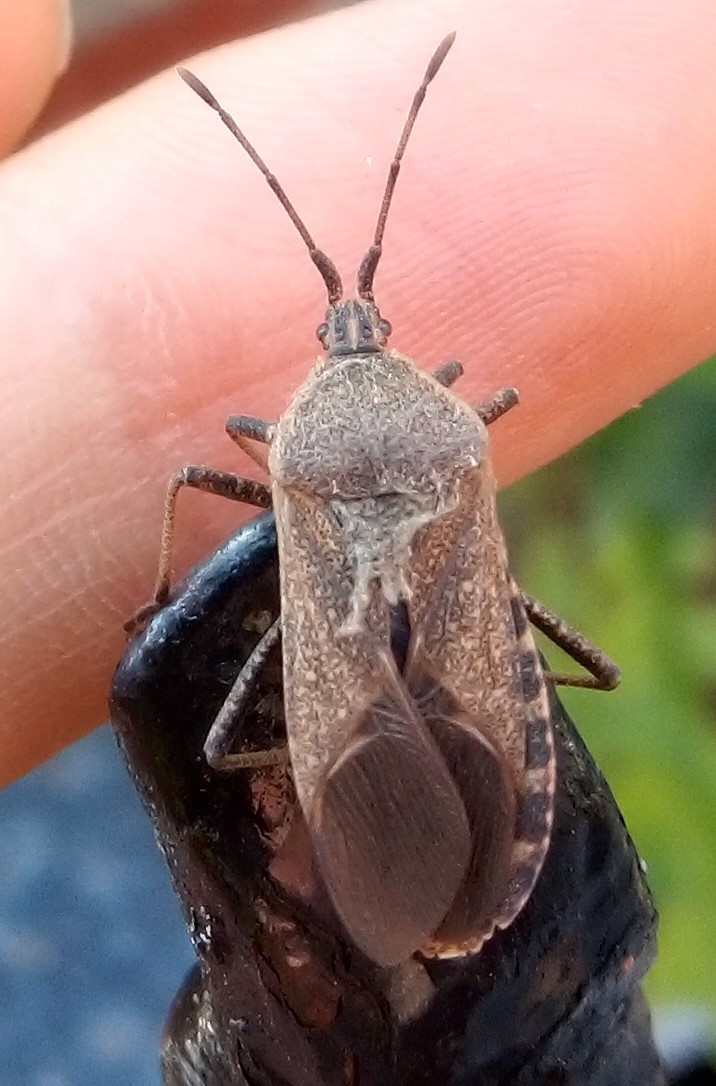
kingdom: Animalia
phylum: Arthropoda
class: Insecta
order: Hemiptera
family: Coreidae
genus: Anasa
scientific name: Anasa tristis
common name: Squash bug
